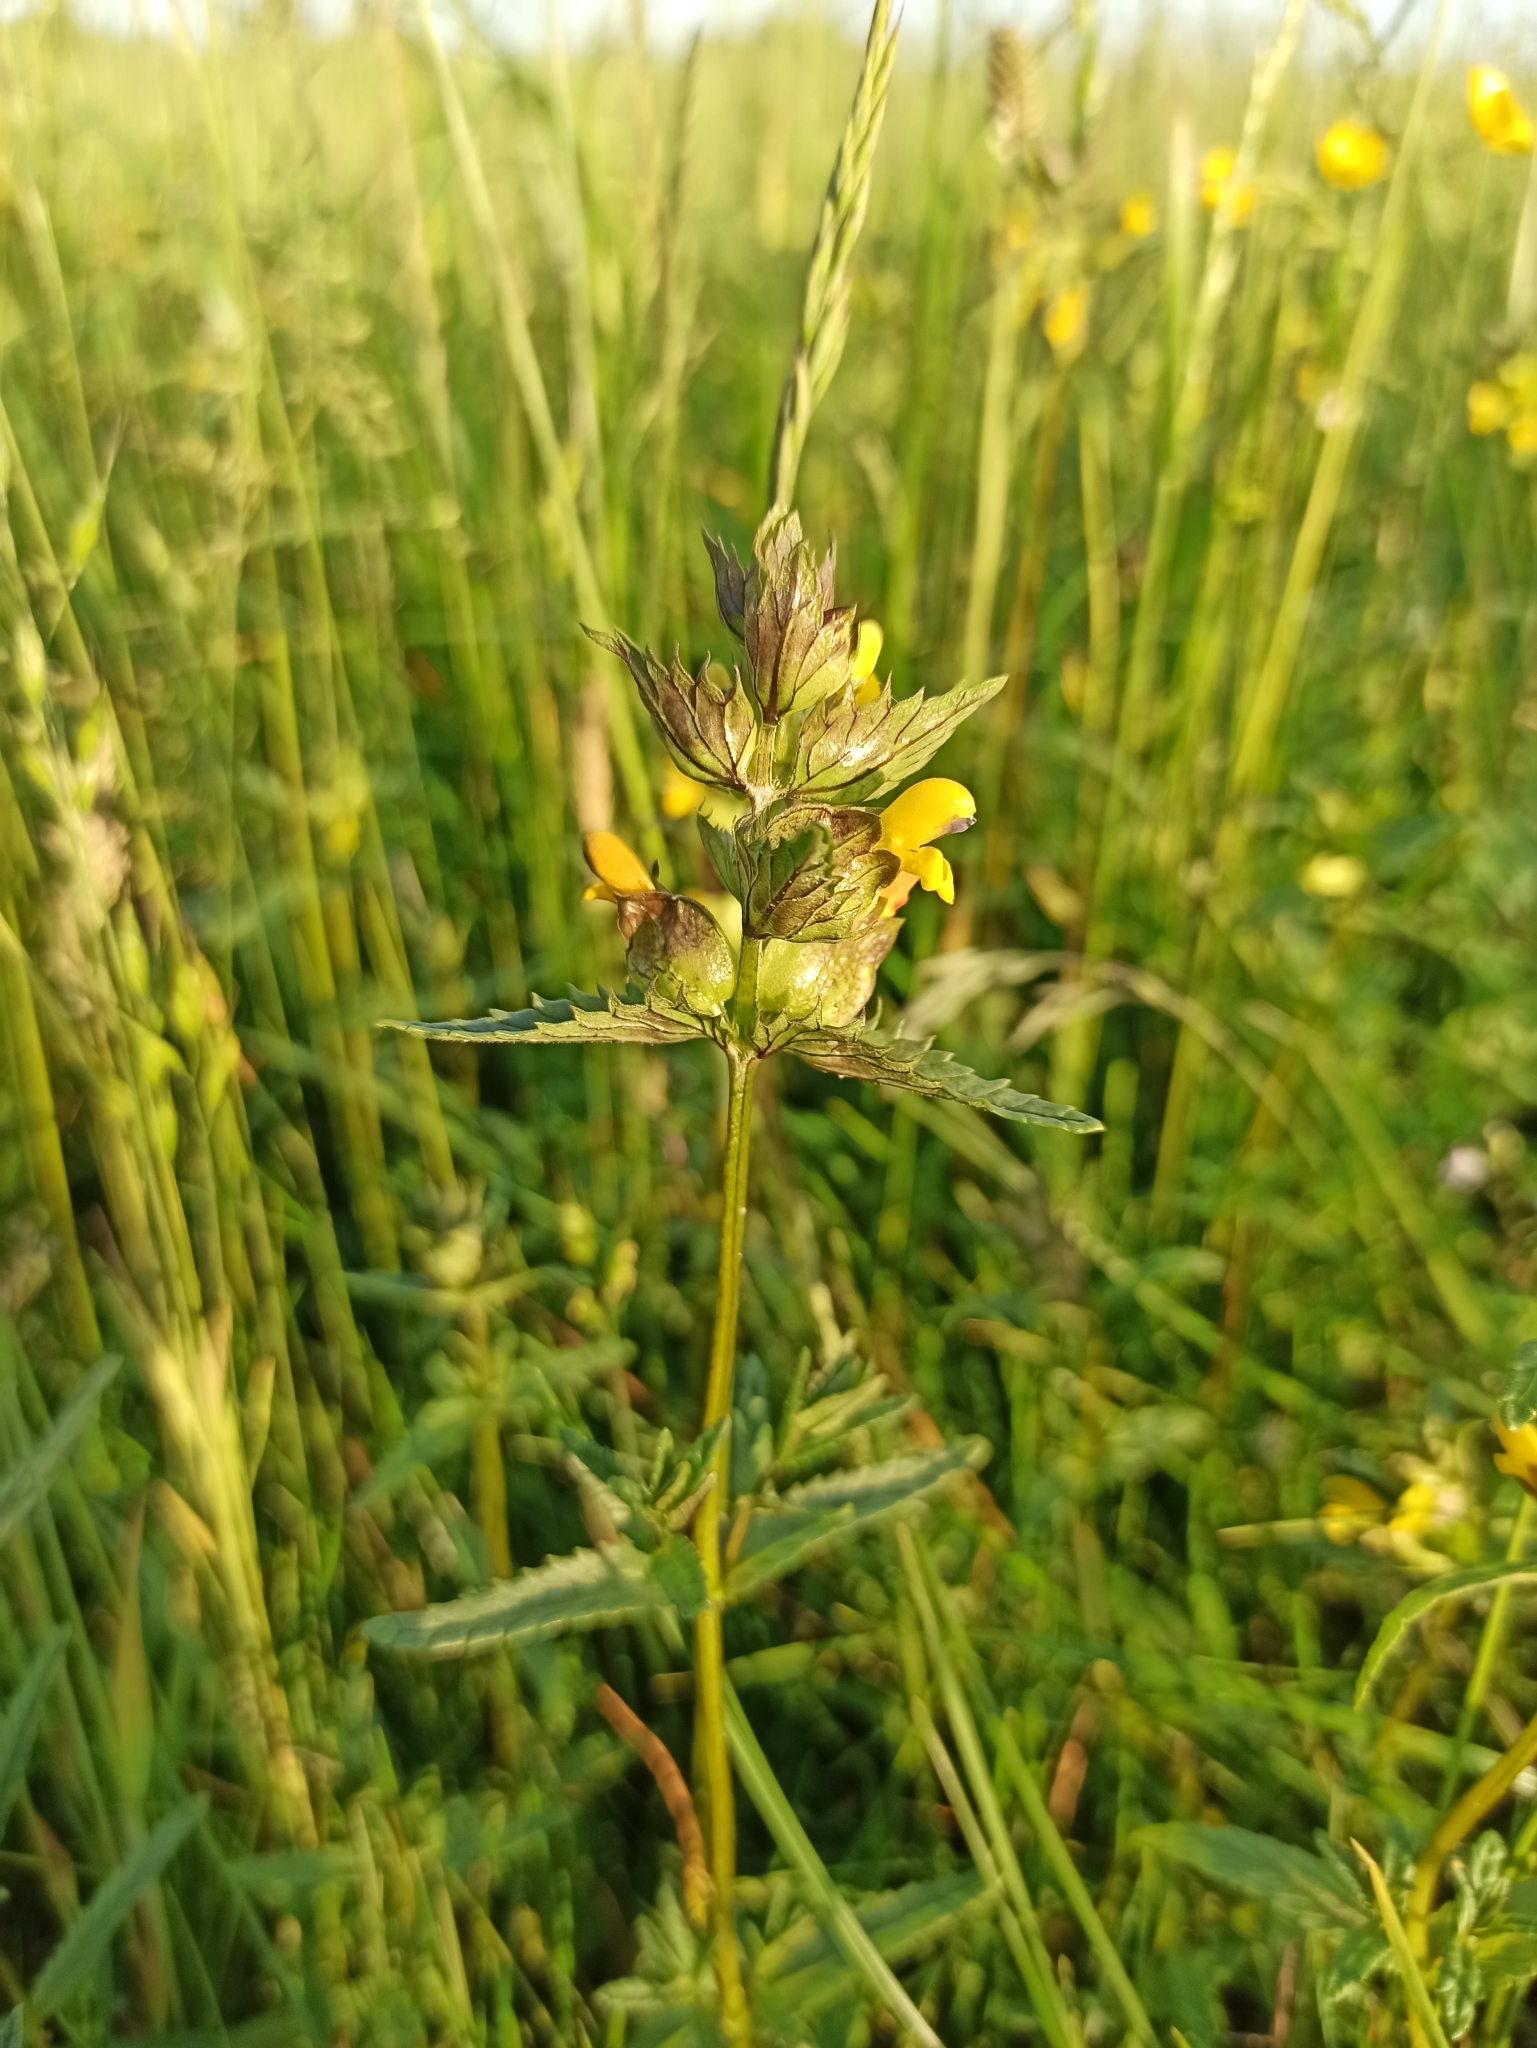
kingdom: Plantae
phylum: Tracheophyta
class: Magnoliopsida
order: Lamiales
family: Orobanchaceae
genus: Rhinanthus
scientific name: Rhinanthus minor
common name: Yellow-rattle
